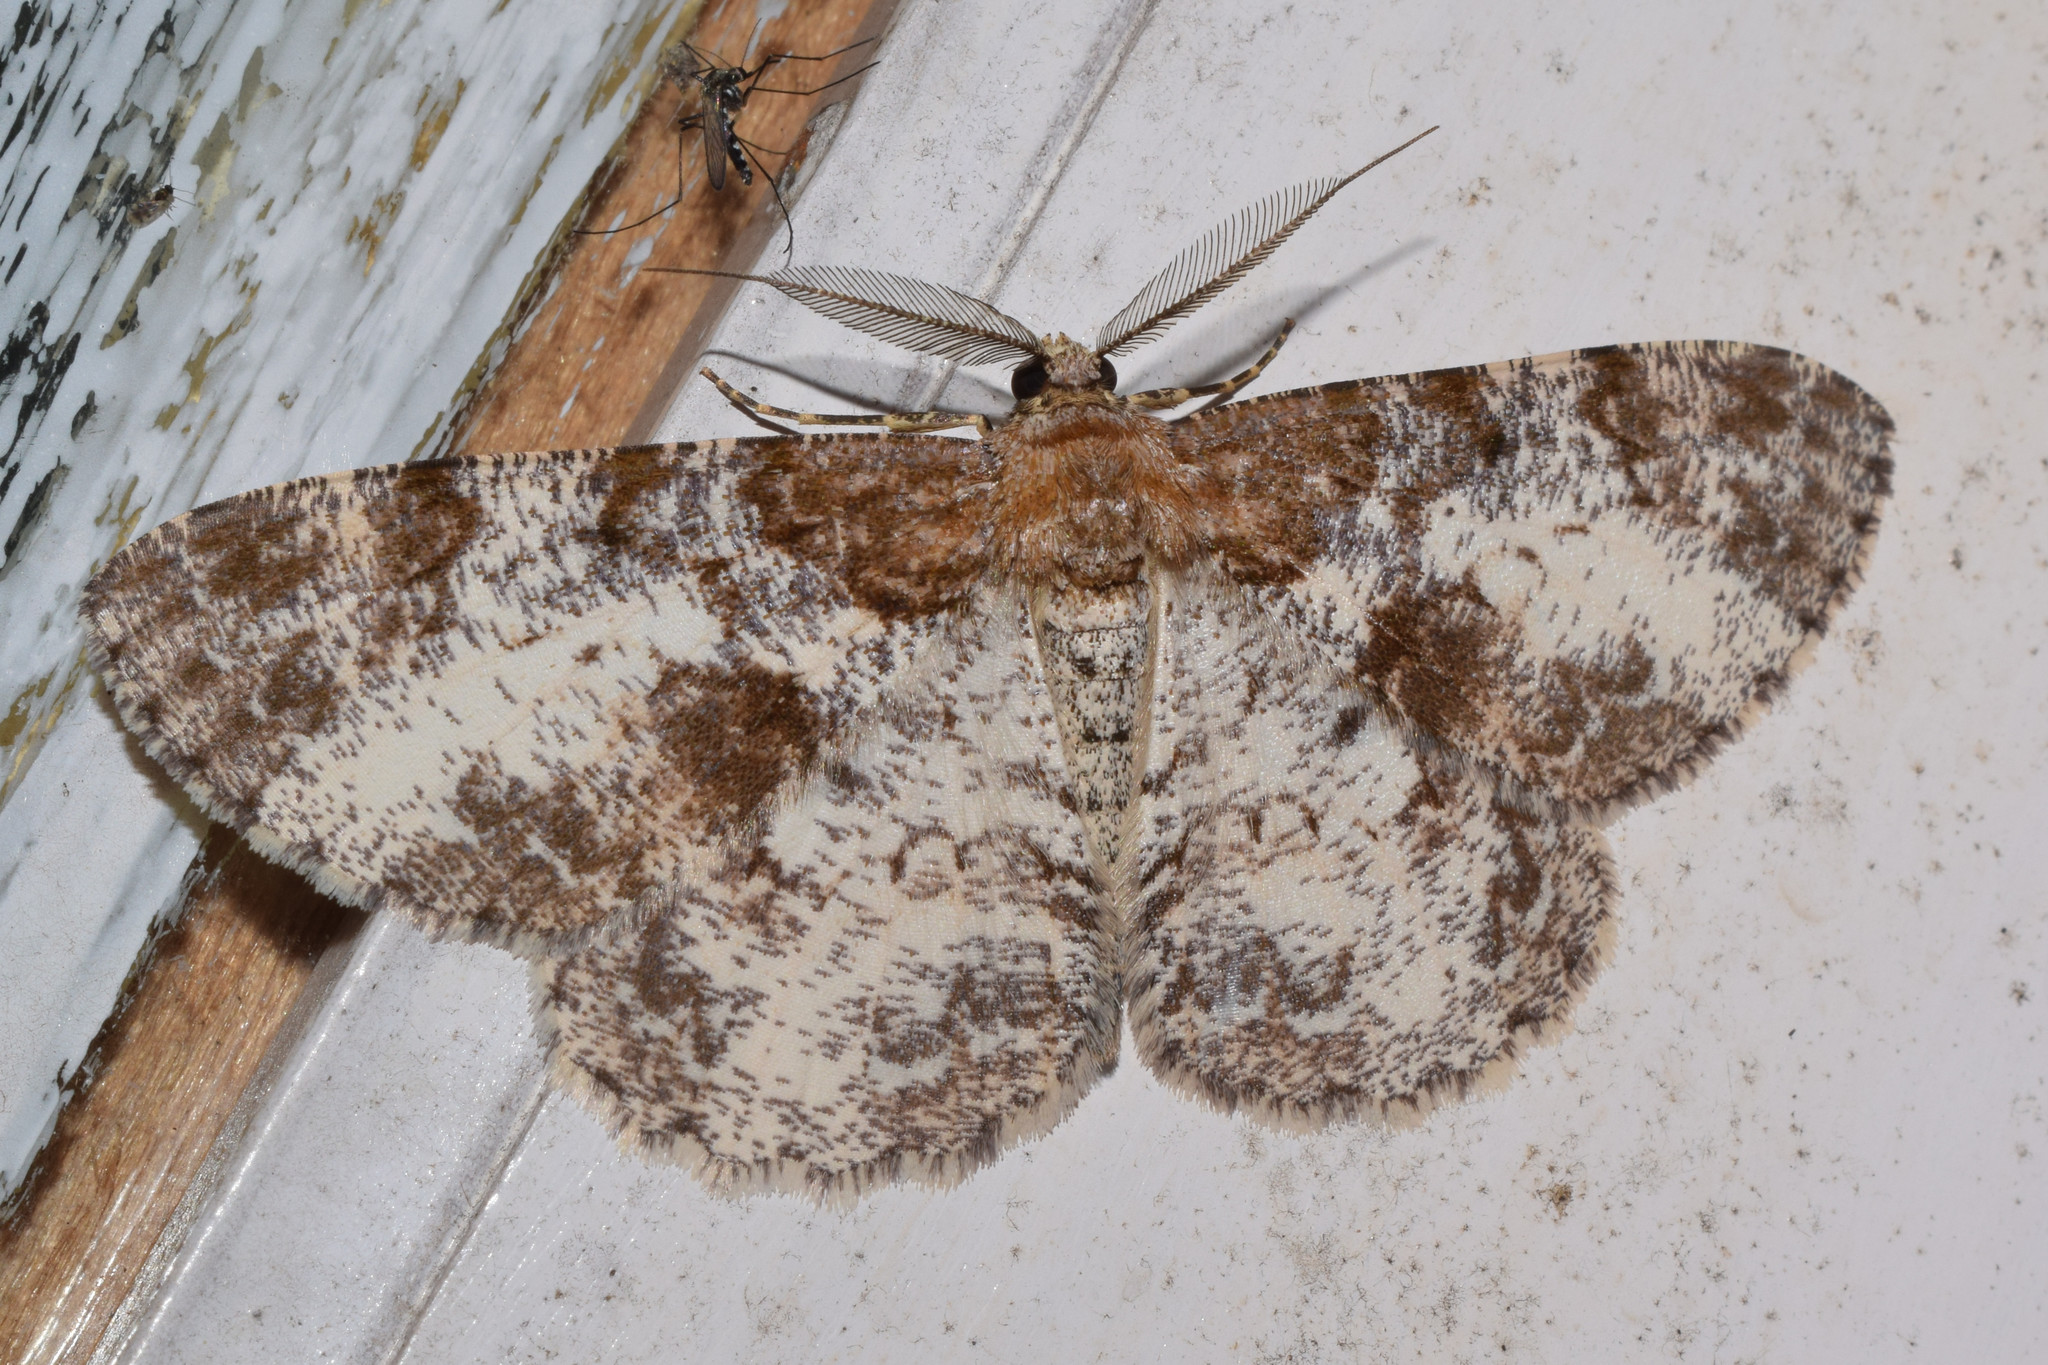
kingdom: Animalia
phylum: Arthropoda
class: Insecta
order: Lepidoptera
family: Geometridae
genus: Hypomecis
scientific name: Hypomecis oblivia
